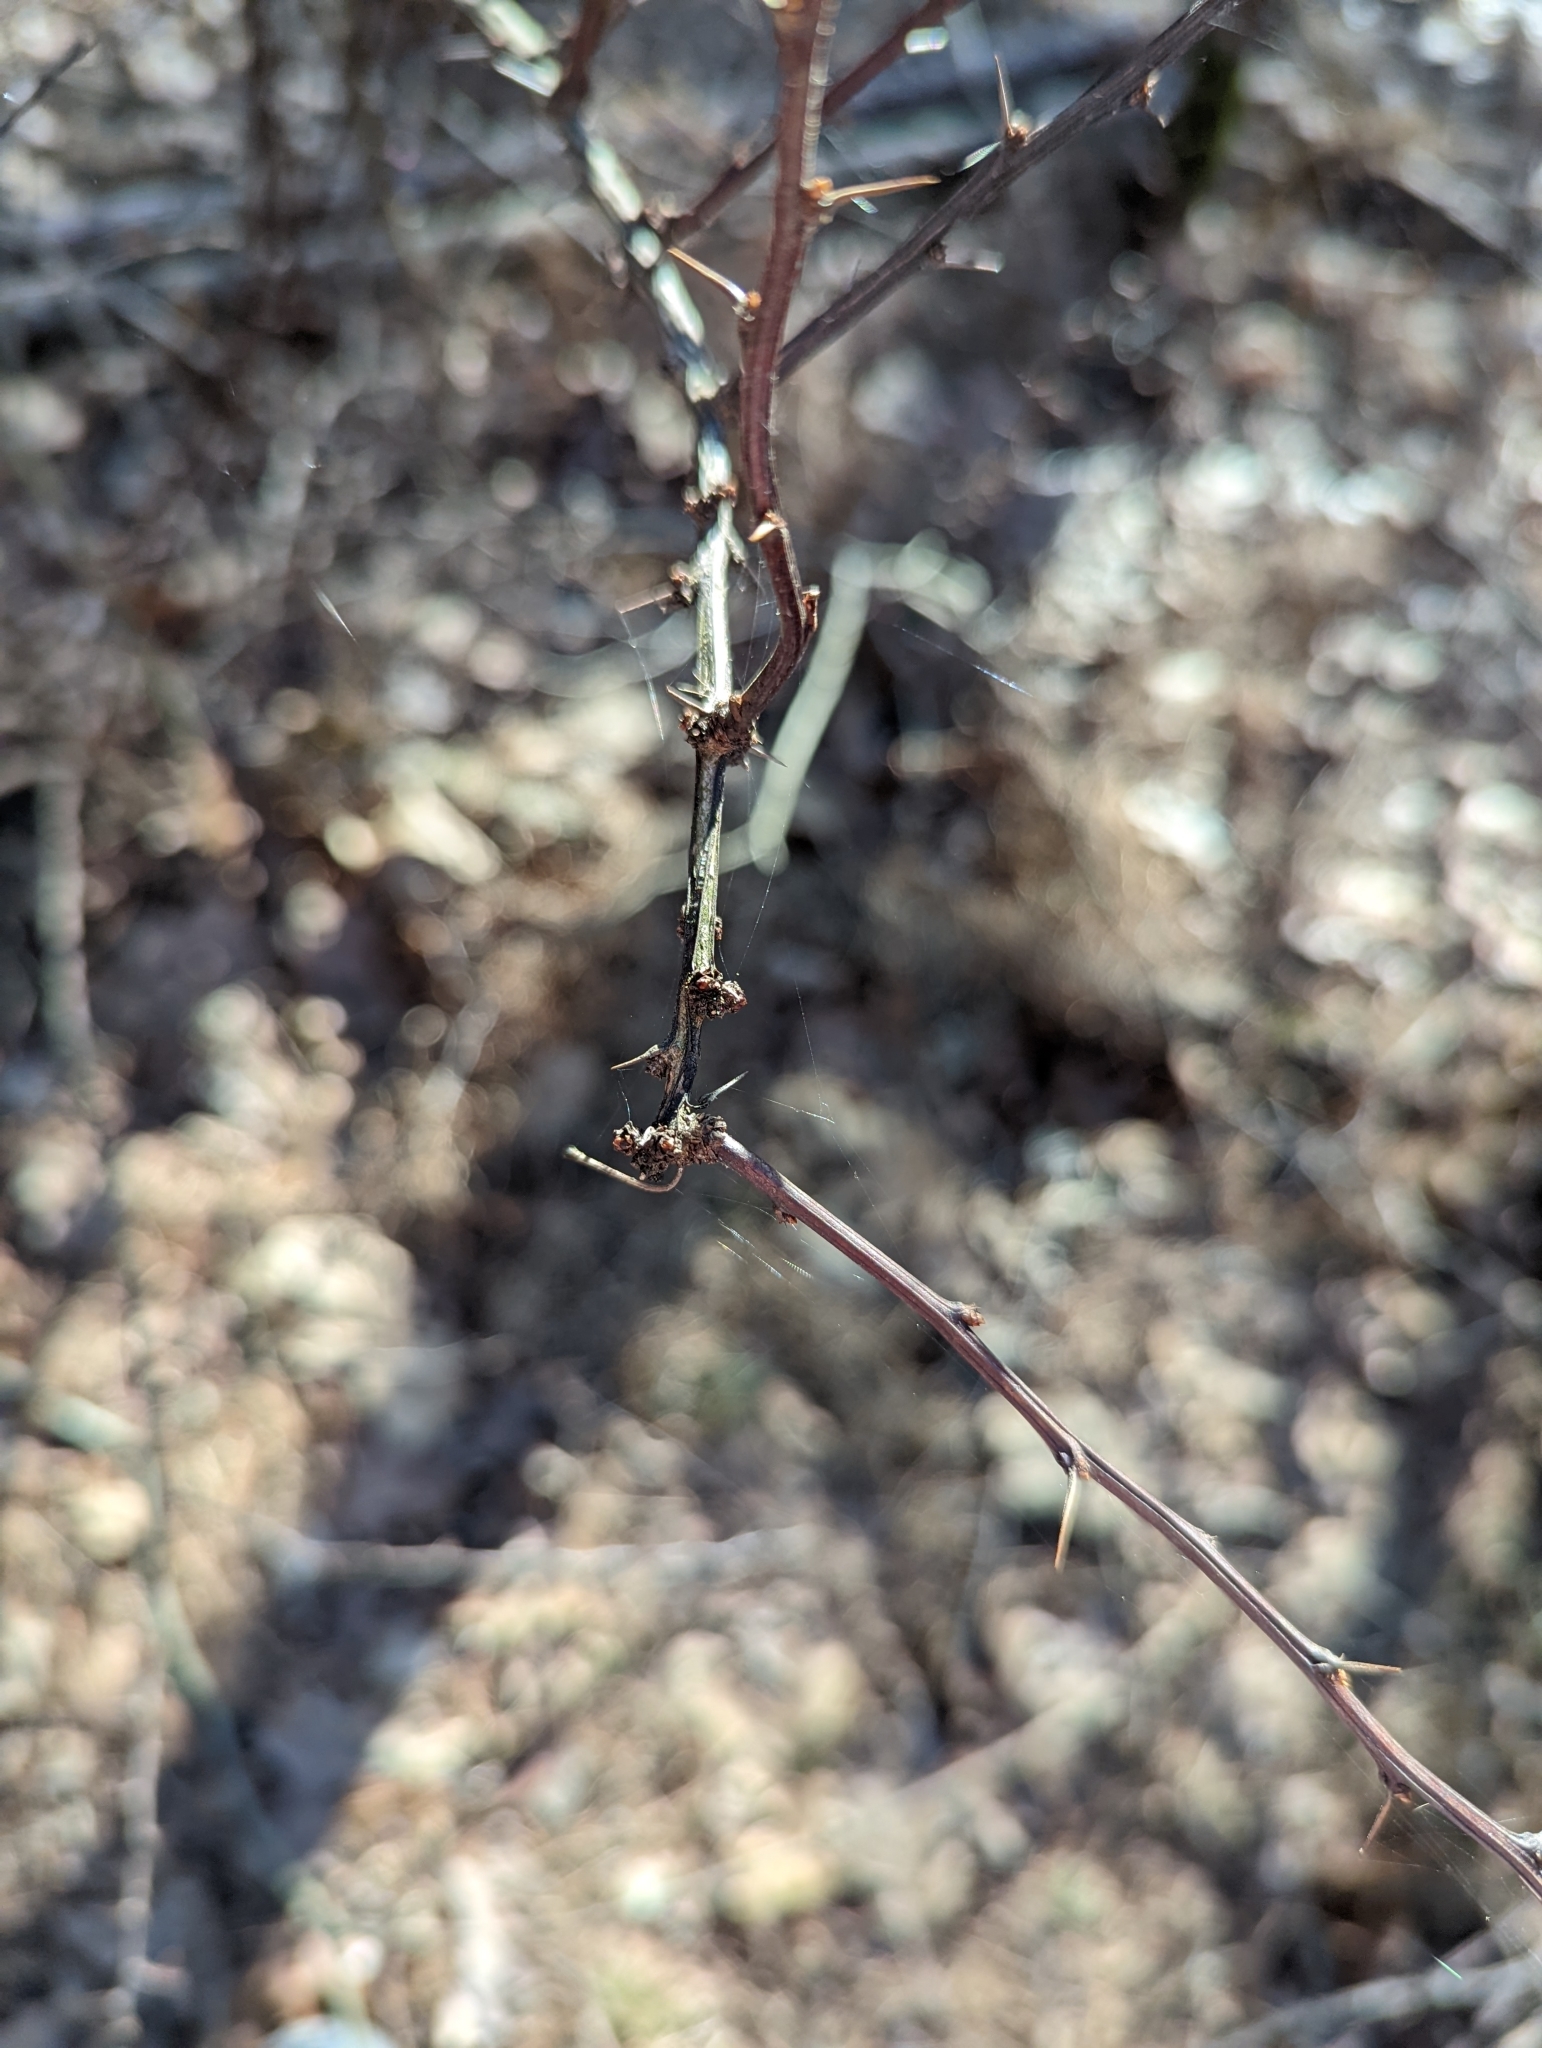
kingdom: Plantae
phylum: Tracheophyta
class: Magnoliopsida
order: Ranunculales
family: Berberidaceae
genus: Berberis
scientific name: Berberis thunbergii
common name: Japanese barberry
